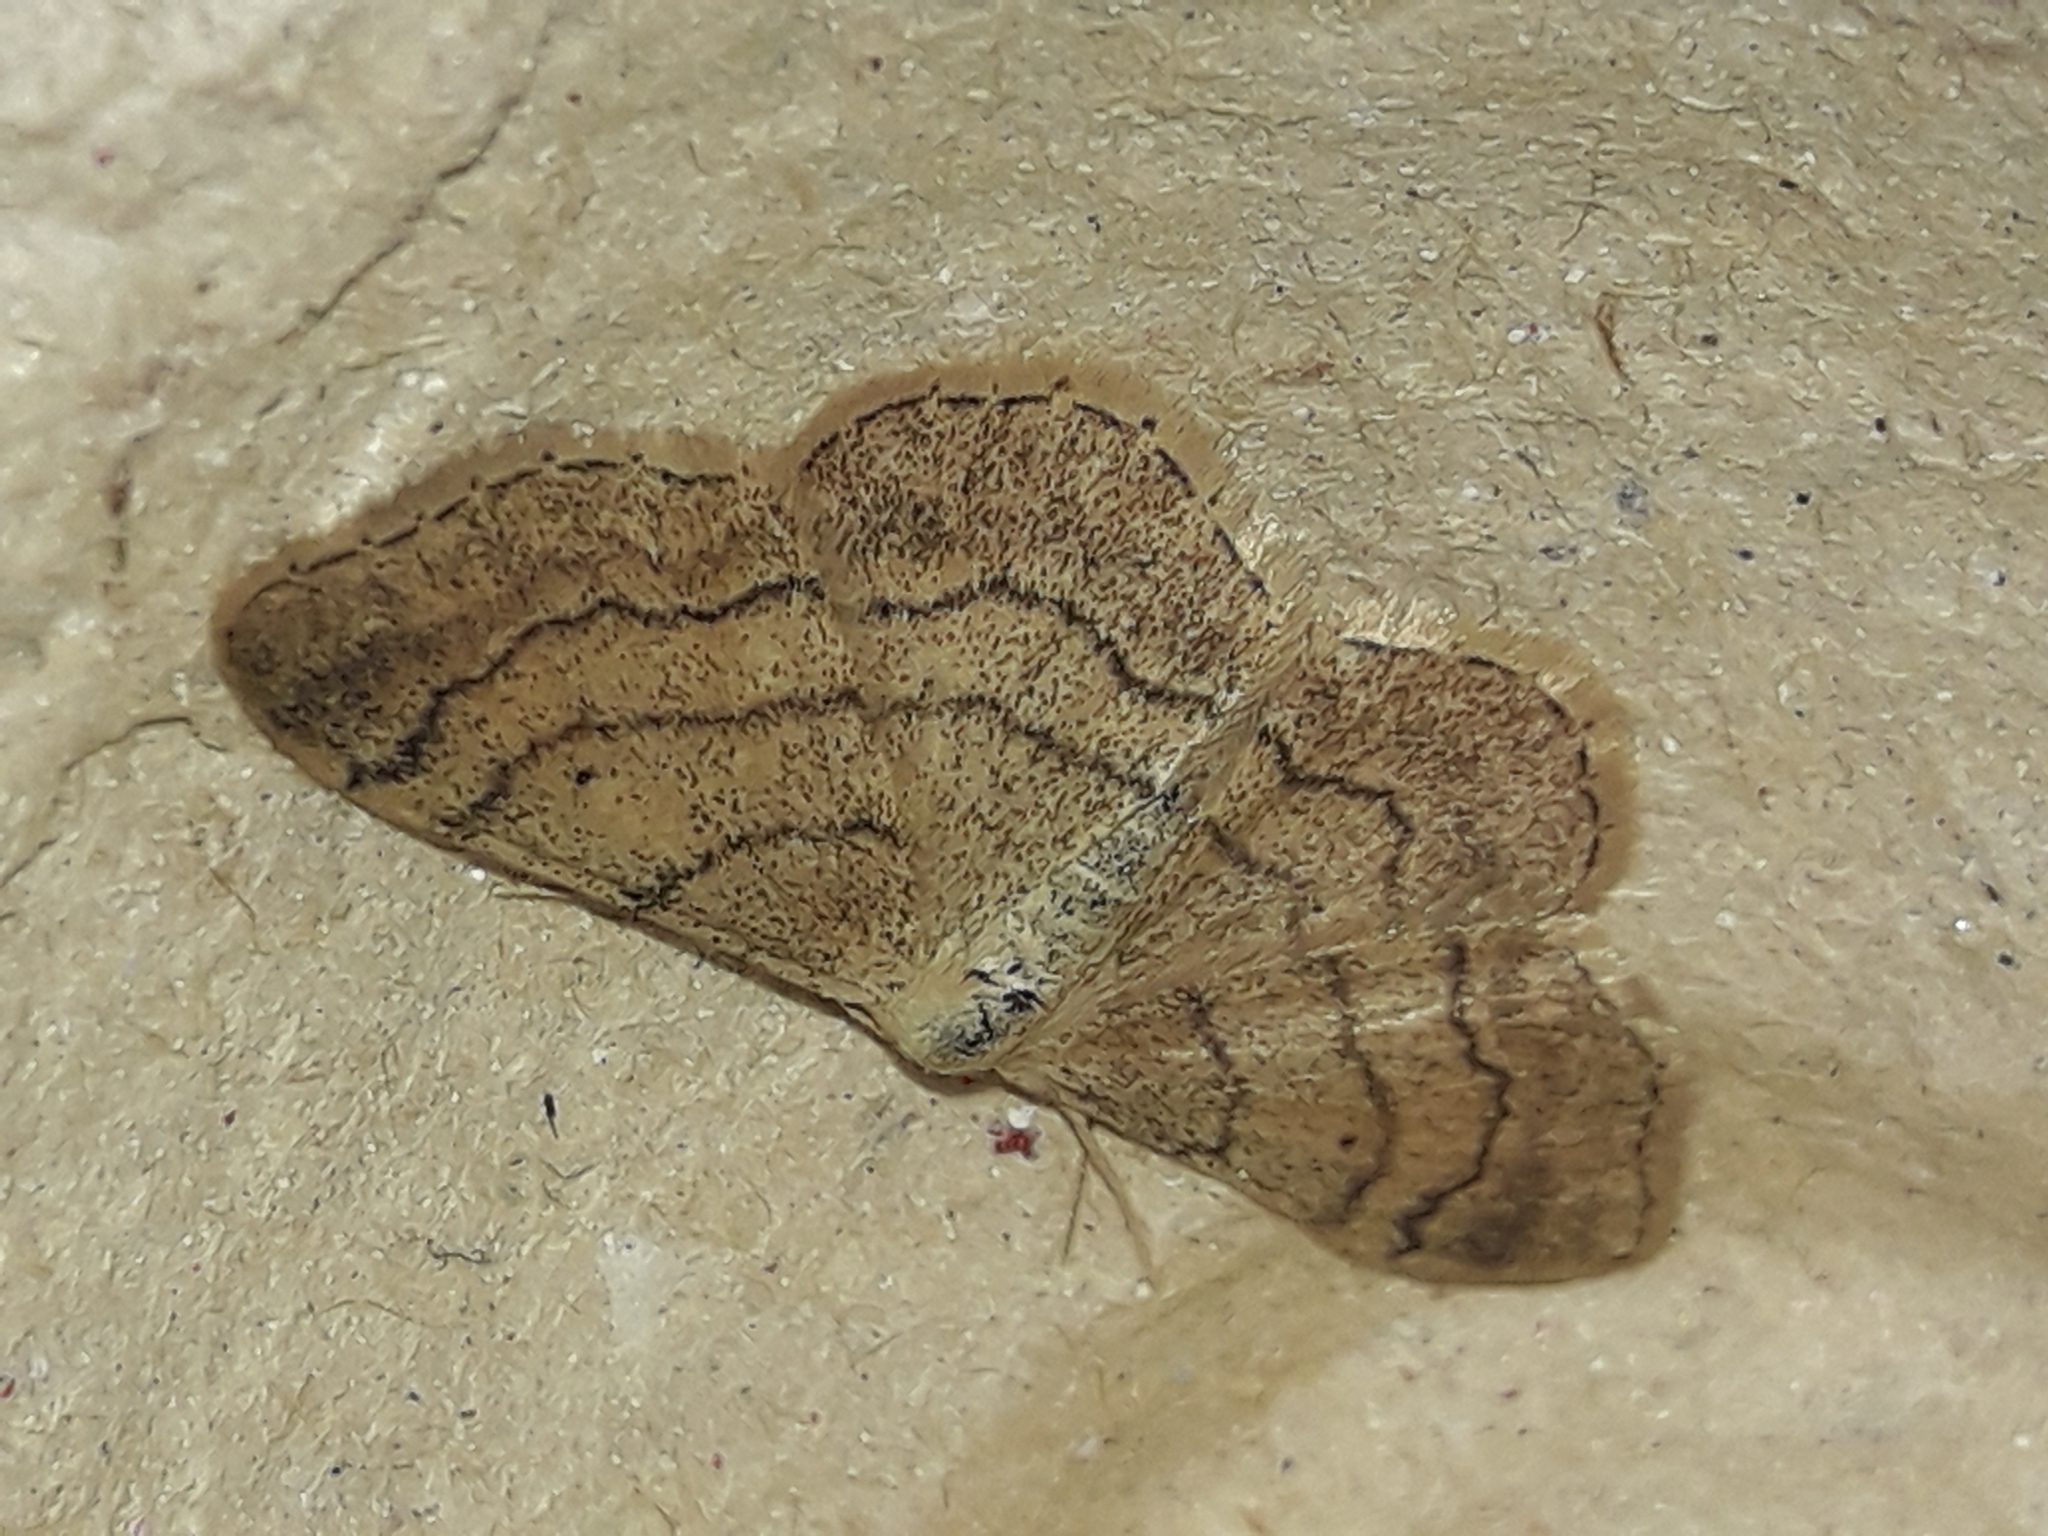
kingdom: Animalia
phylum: Arthropoda
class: Insecta
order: Lepidoptera
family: Geometridae
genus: Idaea
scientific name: Idaea aversata
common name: Riband wave
